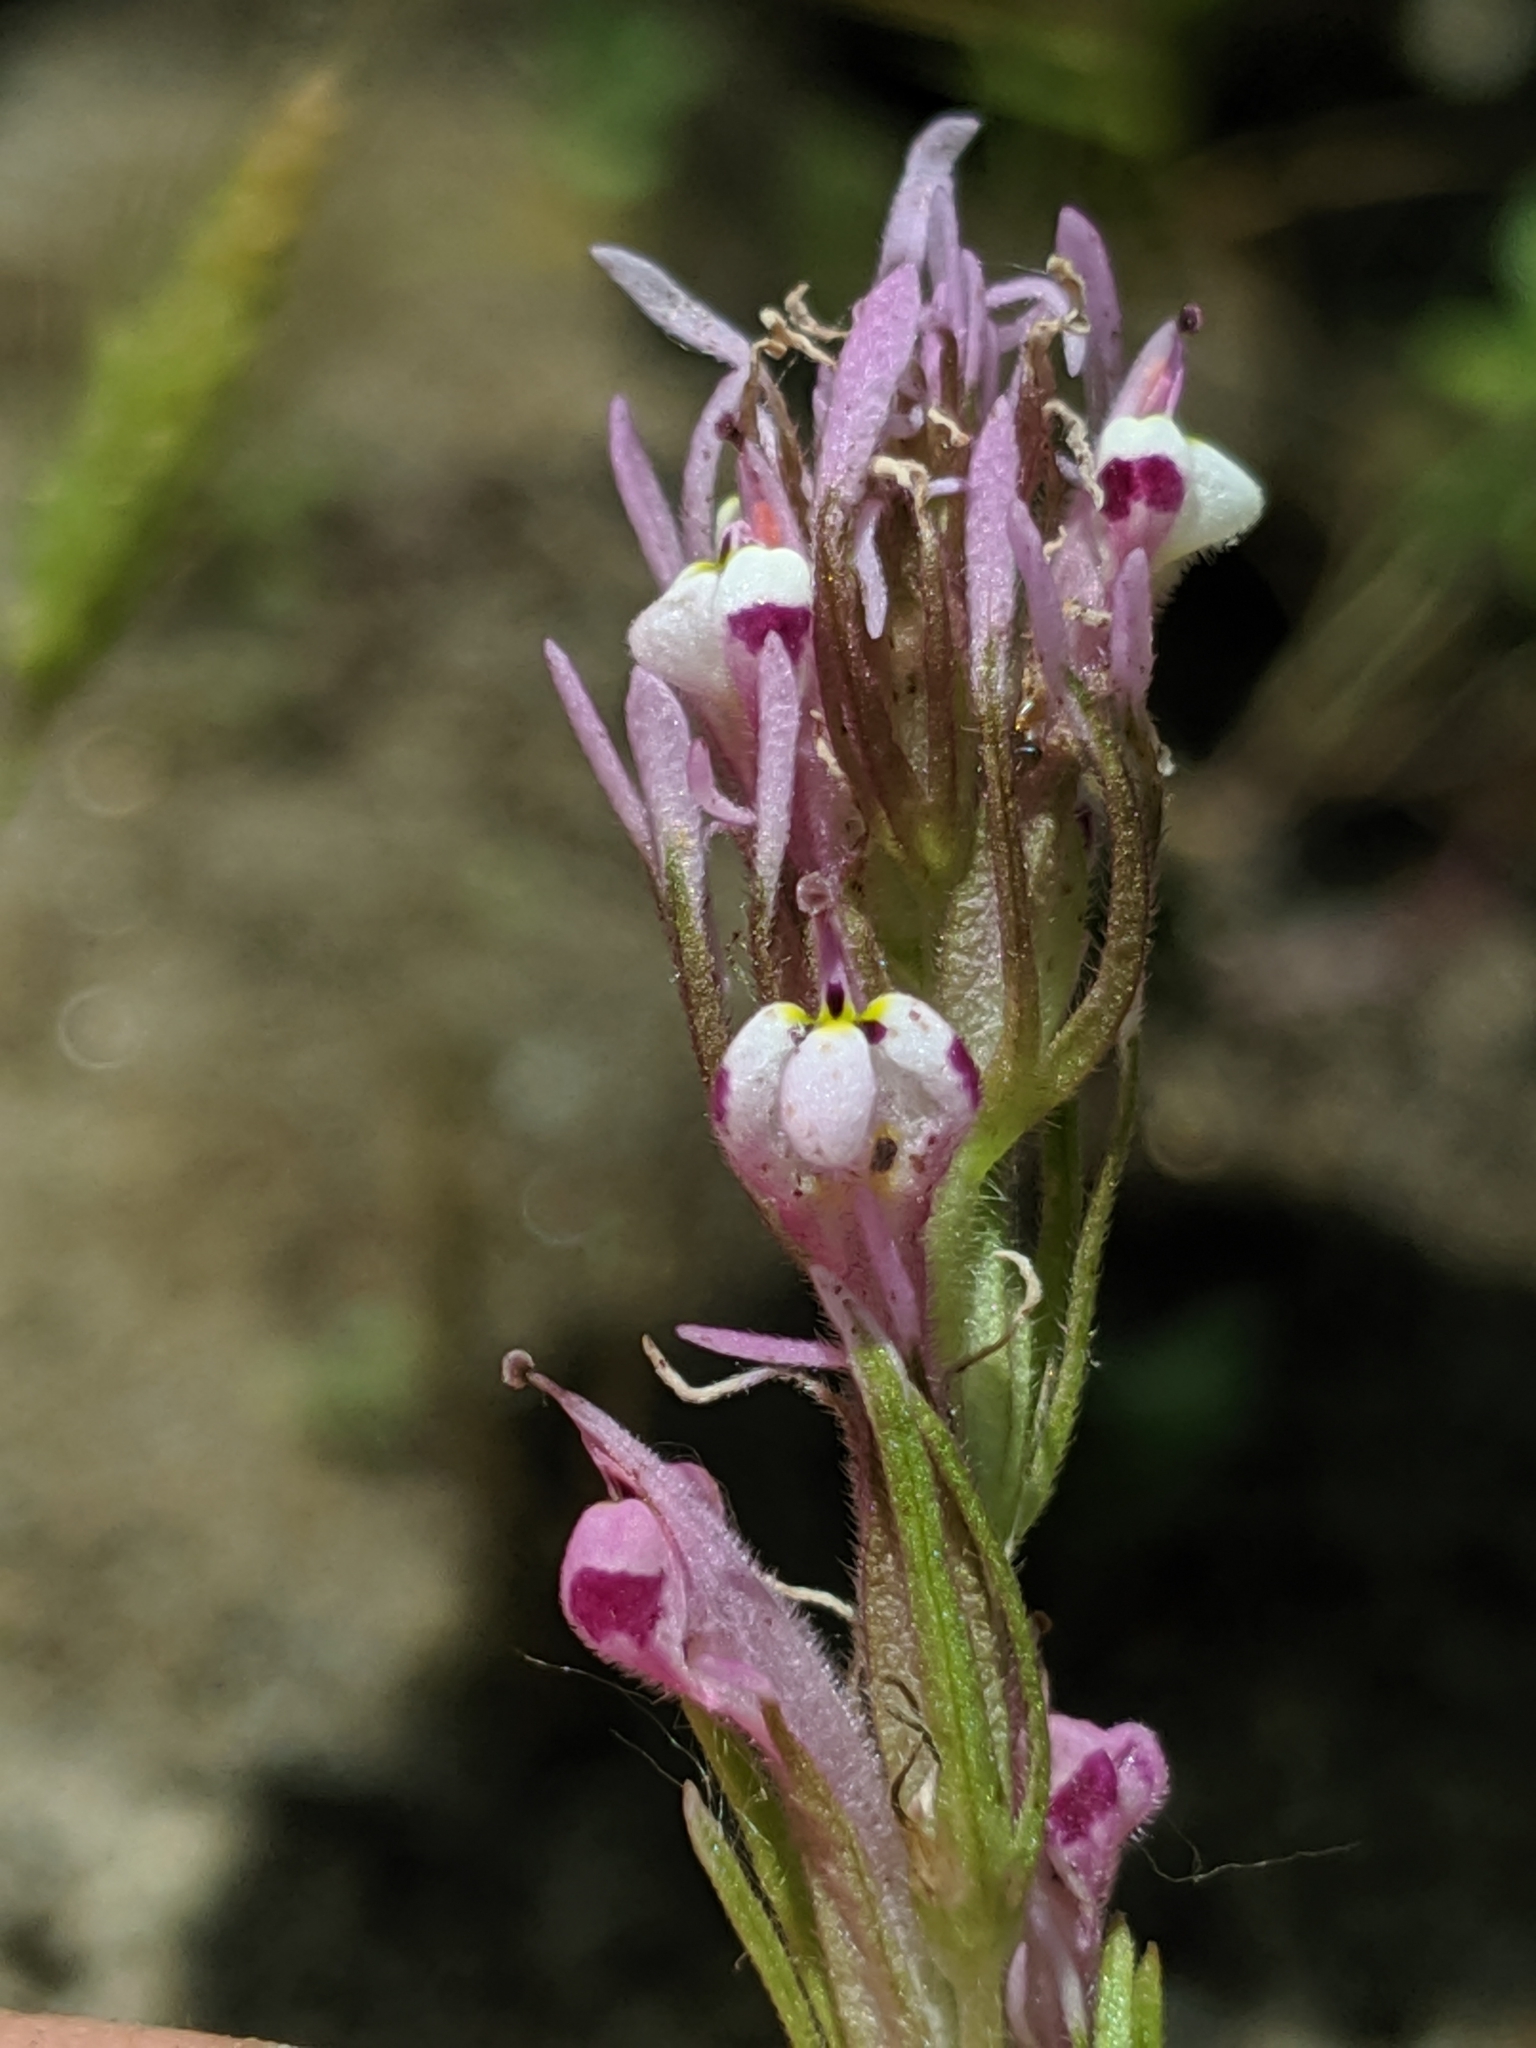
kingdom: Plantae
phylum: Tracheophyta
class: Magnoliopsida
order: Lamiales
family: Orobanchaceae
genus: Castilleja
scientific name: Castilleja densiflora
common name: Dense-flower indian paintbrush
